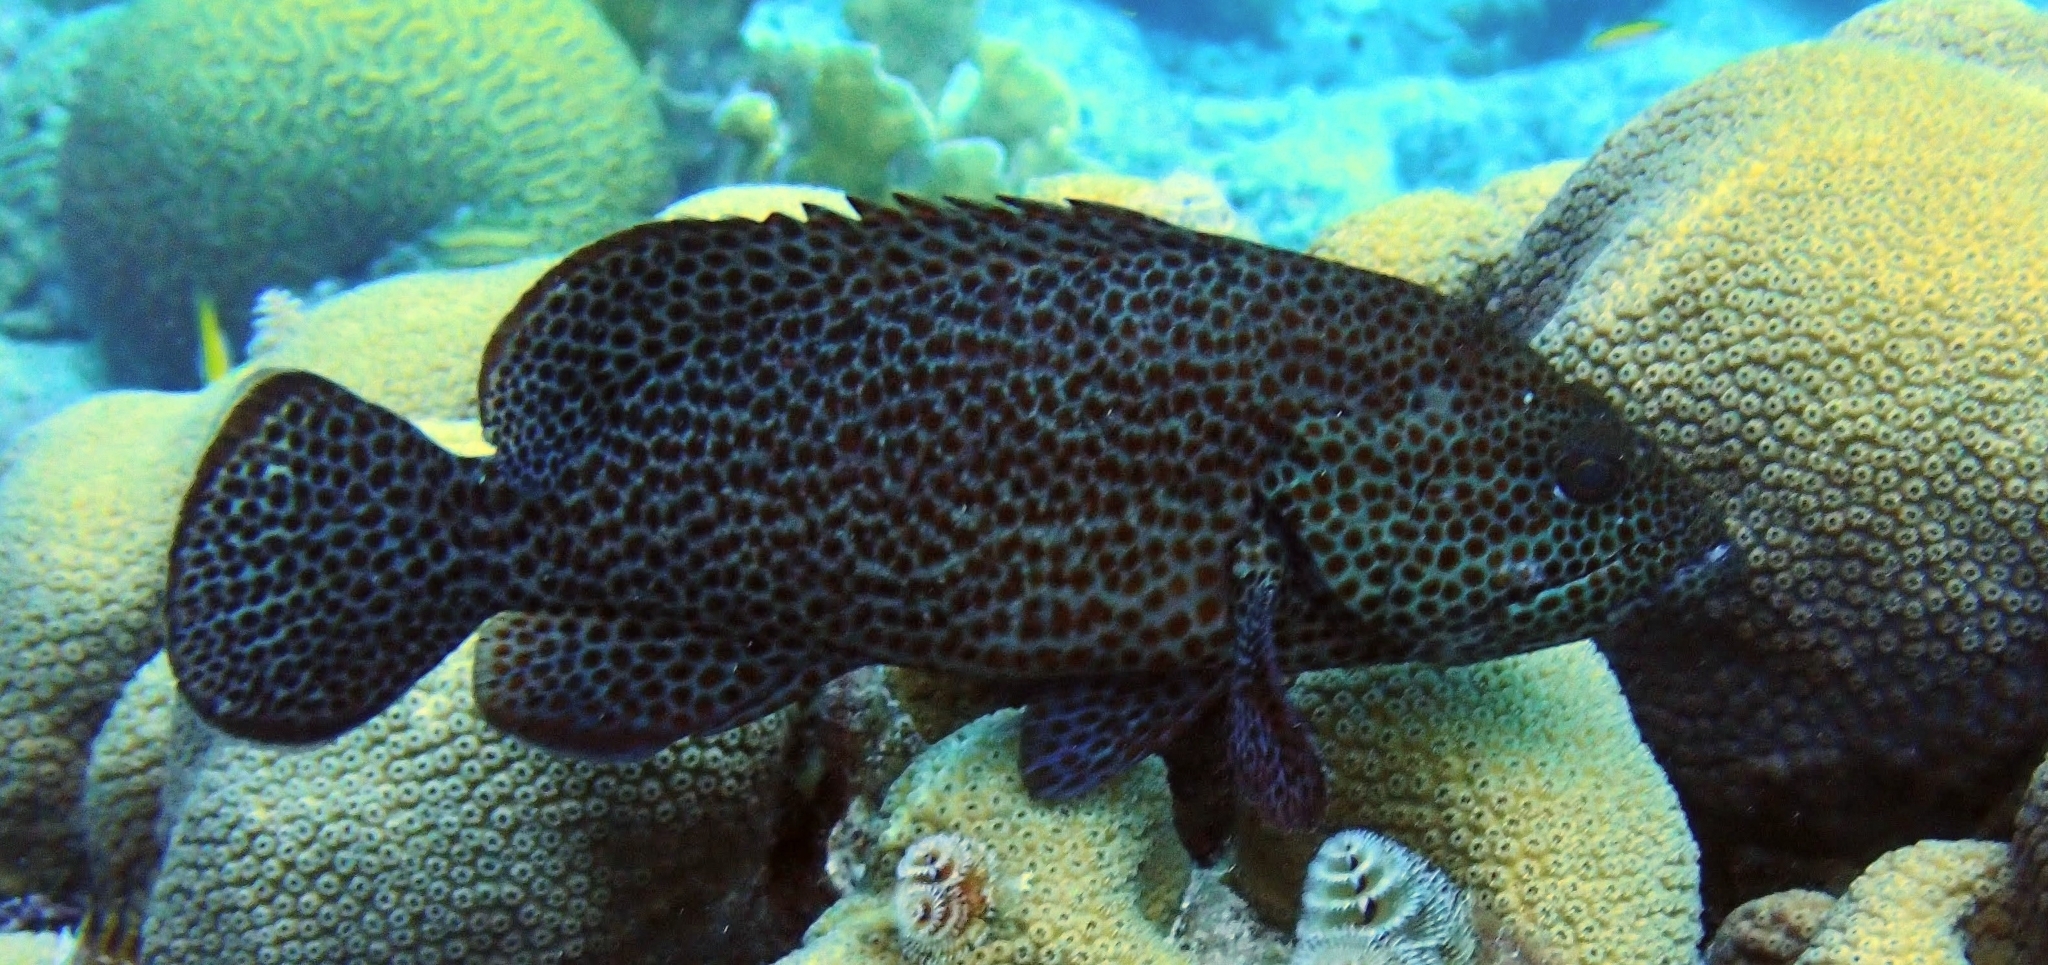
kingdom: Animalia
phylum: Chordata
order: Perciformes
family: Serranidae
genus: Cephalopholis
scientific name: Cephalopholis cruentata
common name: Graysby
